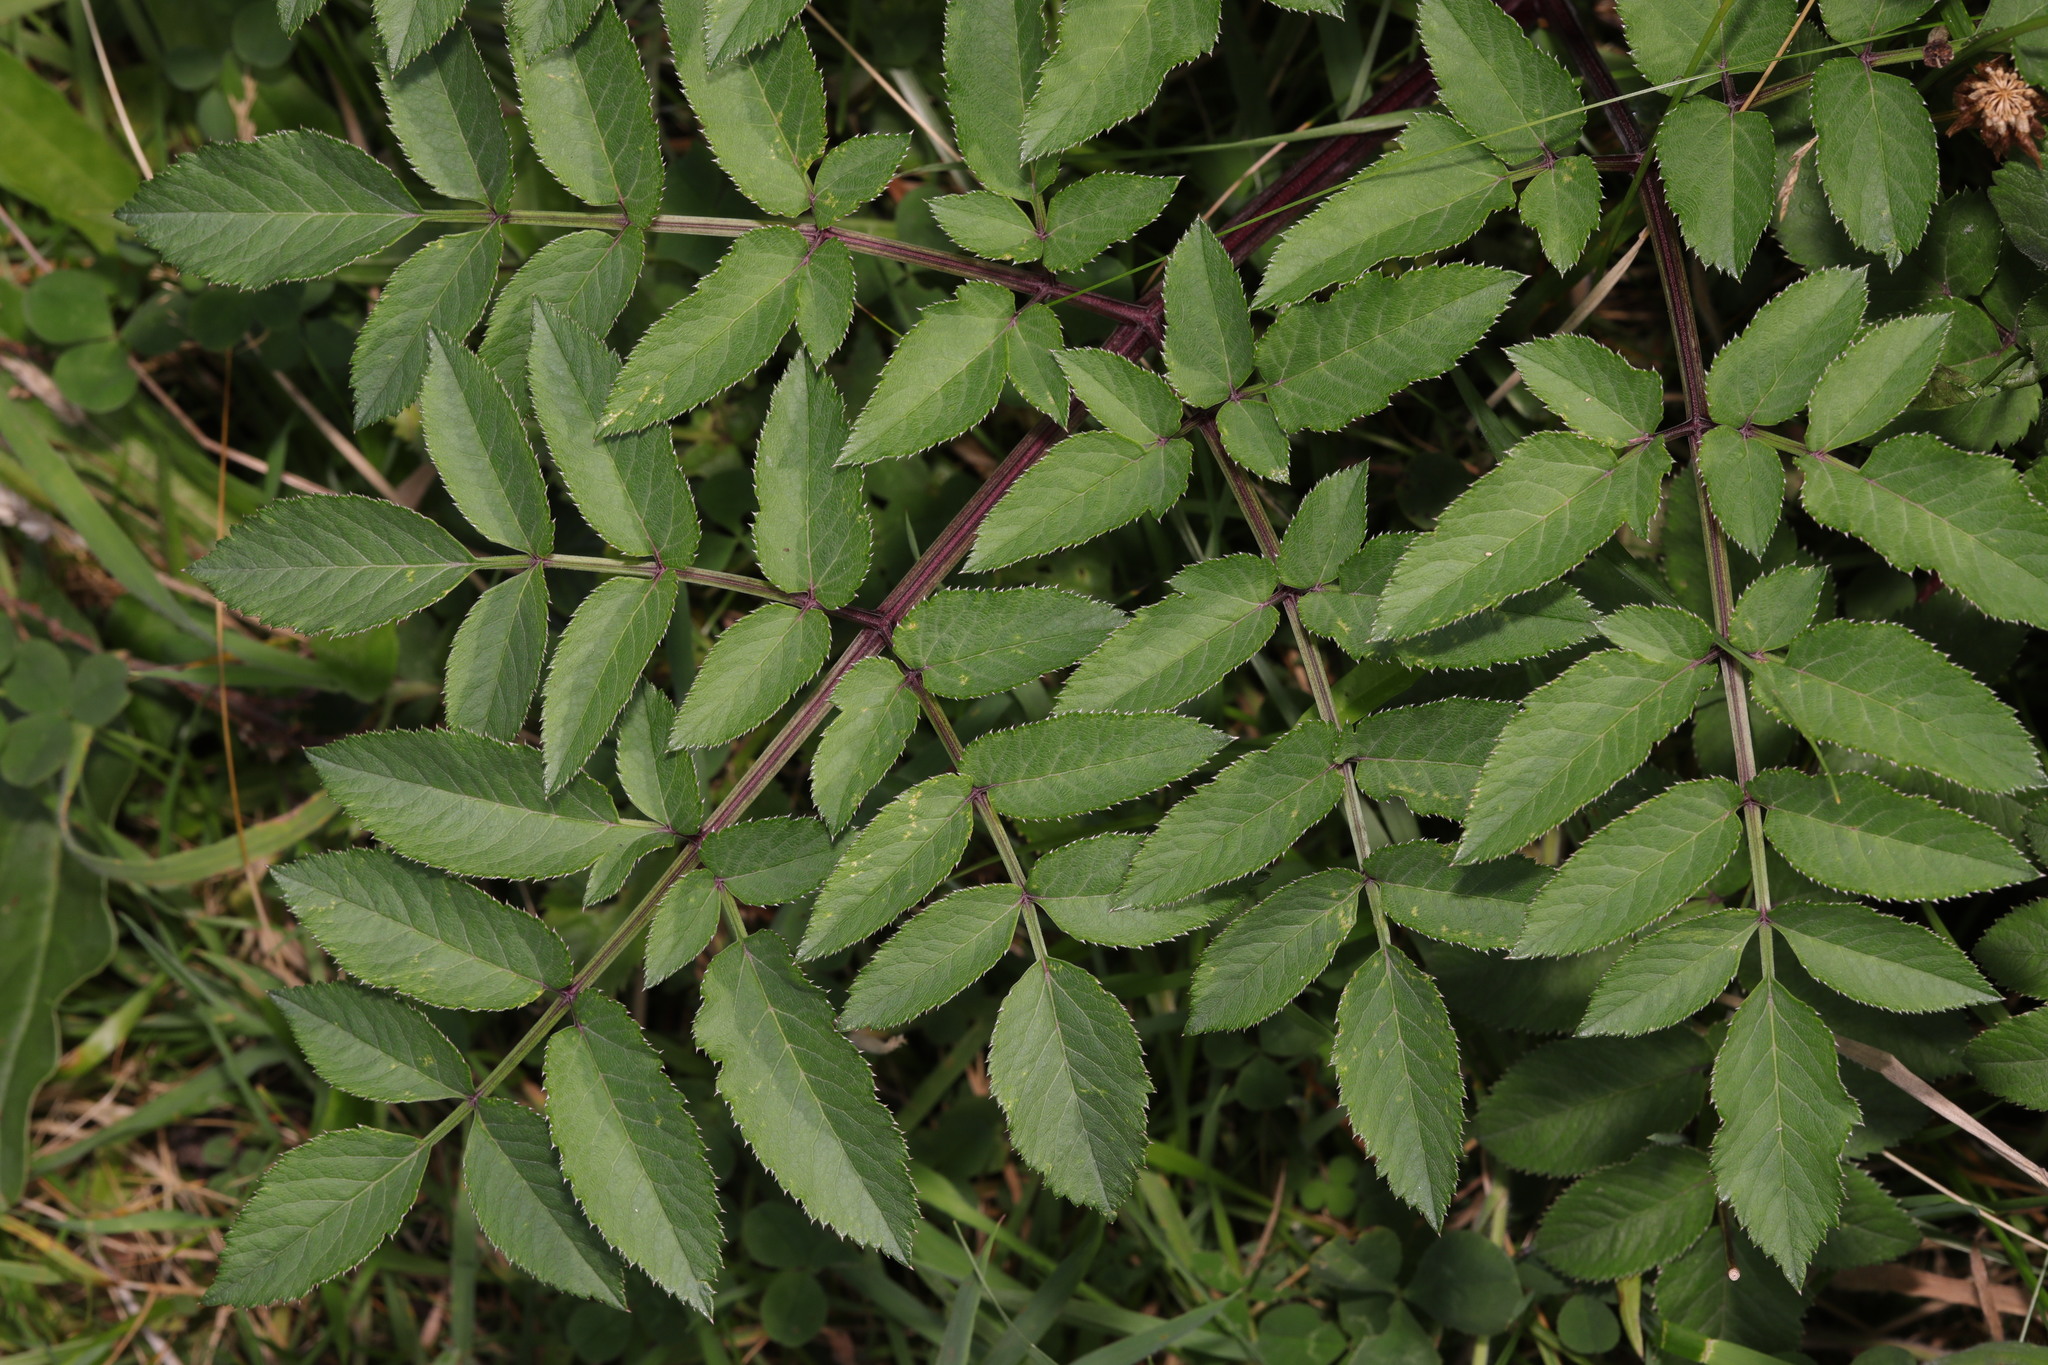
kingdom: Plantae
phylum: Tracheophyta
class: Magnoliopsida
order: Apiales
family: Apiaceae
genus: Angelica
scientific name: Angelica sylvestris
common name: Wild angelica
